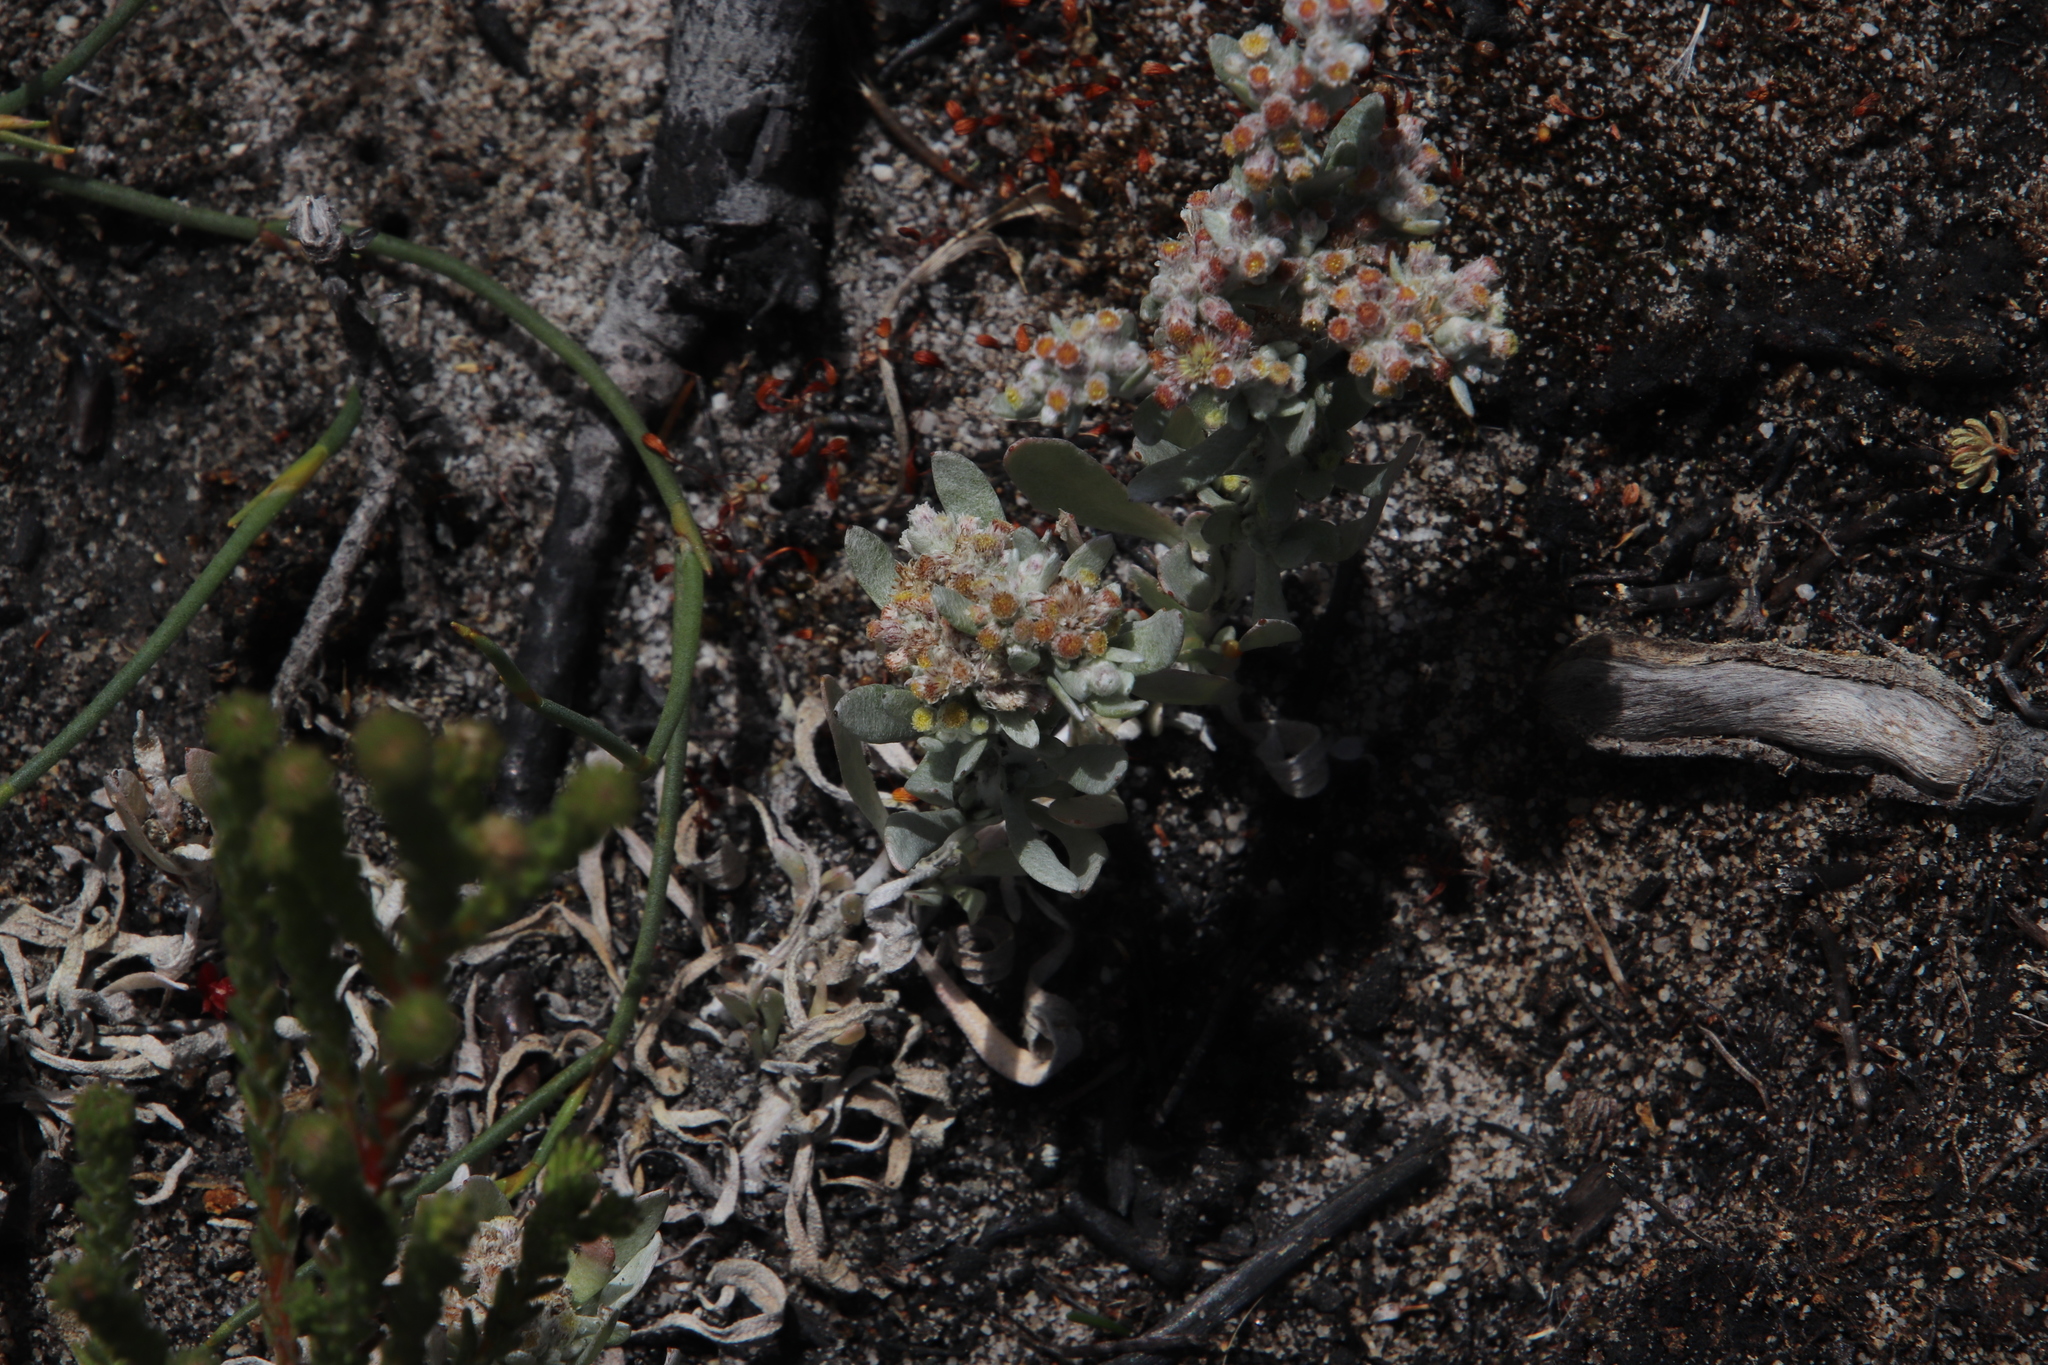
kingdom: Plantae
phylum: Tracheophyta
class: Magnoliopsida
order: Asterales
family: Asteraceae
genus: Vellereophyton
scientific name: Vellereophyton dealbatum
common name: White-cudweed
